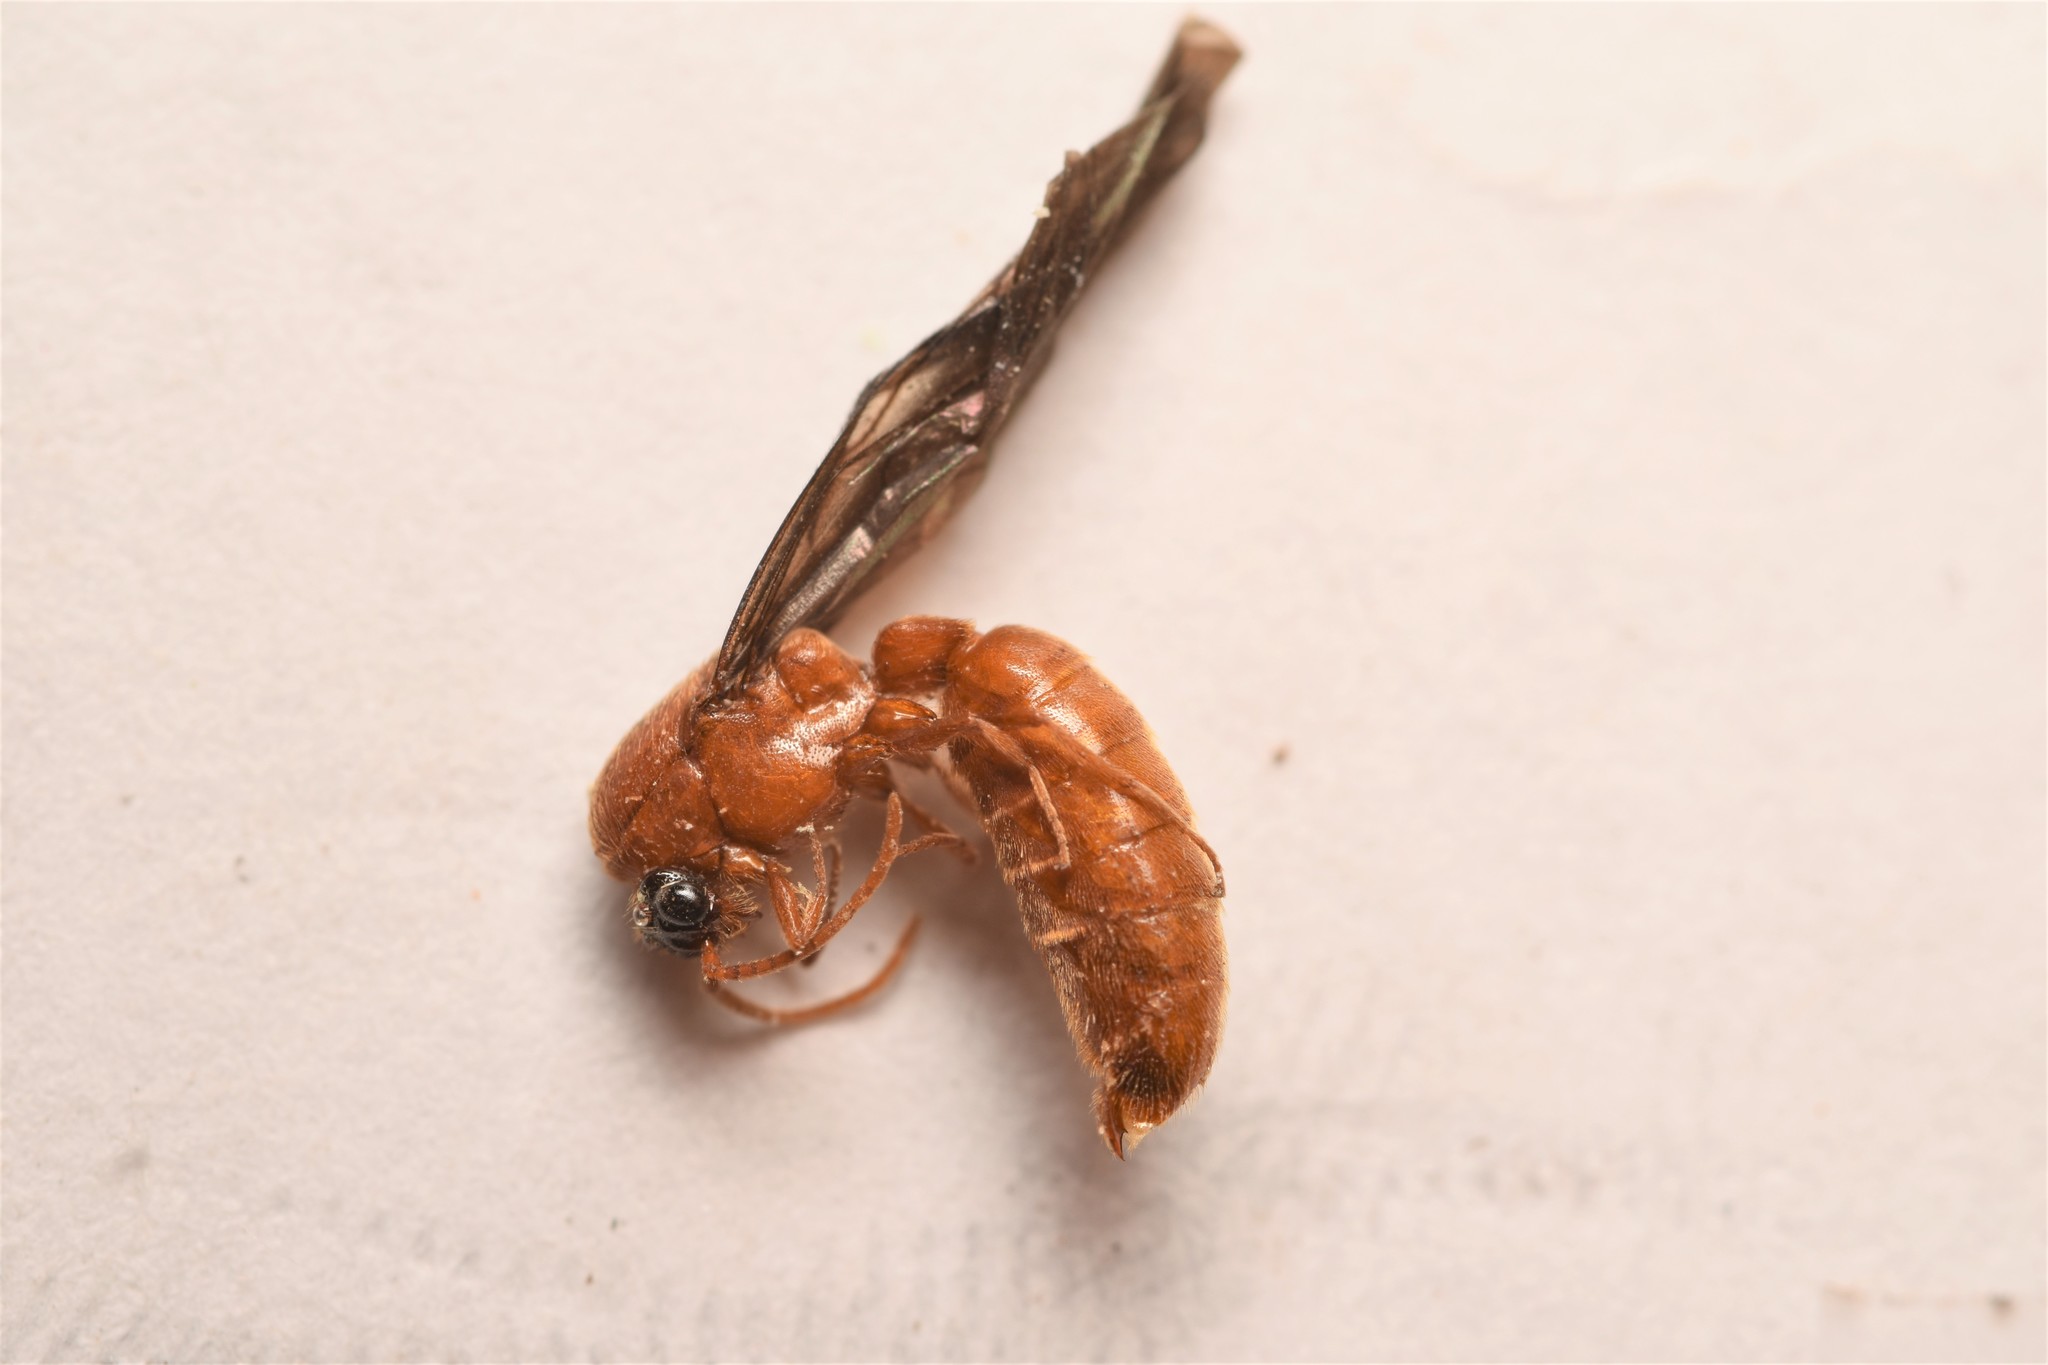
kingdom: Animalia
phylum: Arthropoda
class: Insecta
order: Hymenoptera
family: Formicidae
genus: Neivamyrmex
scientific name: Neivamyrmex fuscipennis
